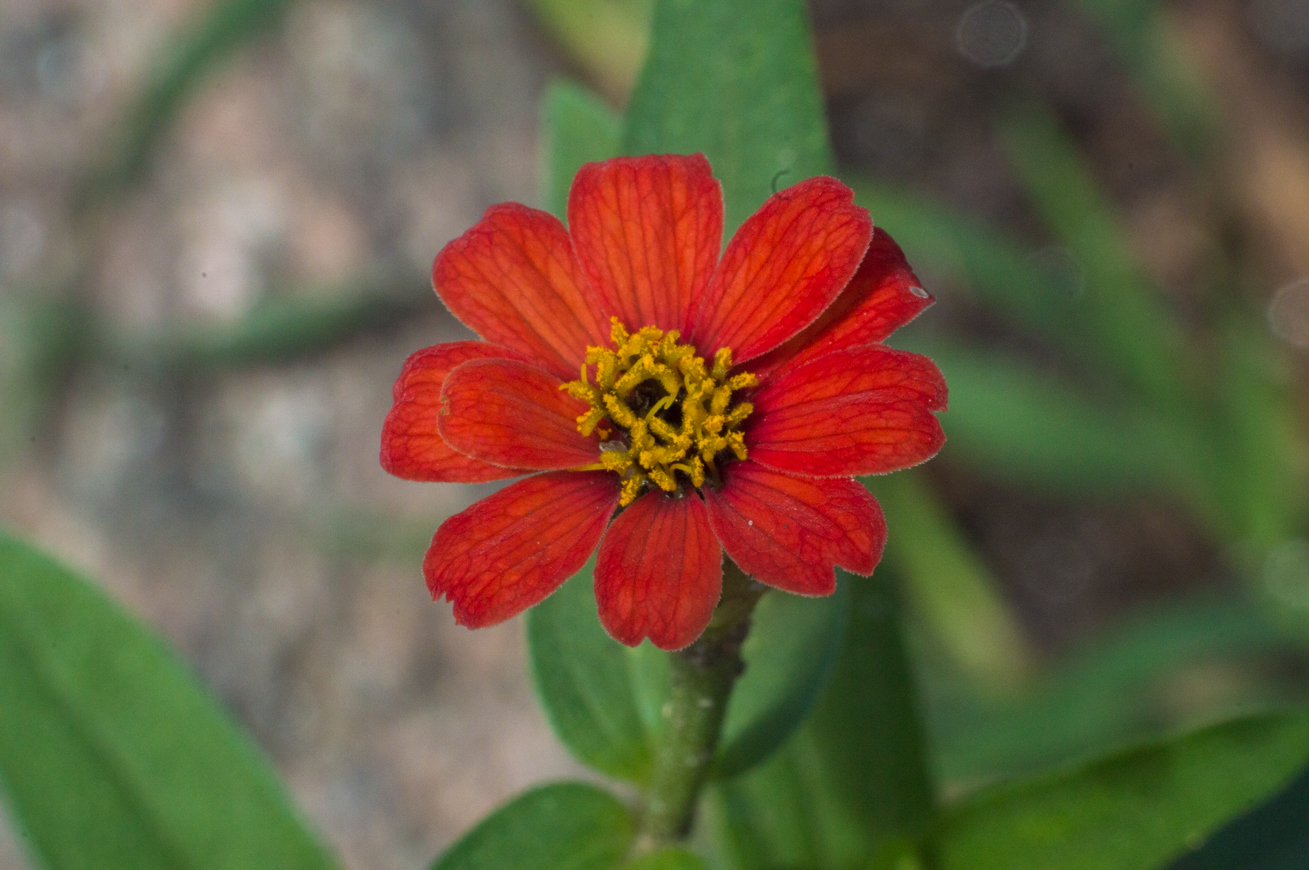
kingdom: Plantae
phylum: Tracheophyta
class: Magnoliopsida
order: Asterales
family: Asteraceae
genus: Zinnia
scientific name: Zinnia peruviana
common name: Peruvian zinnia
